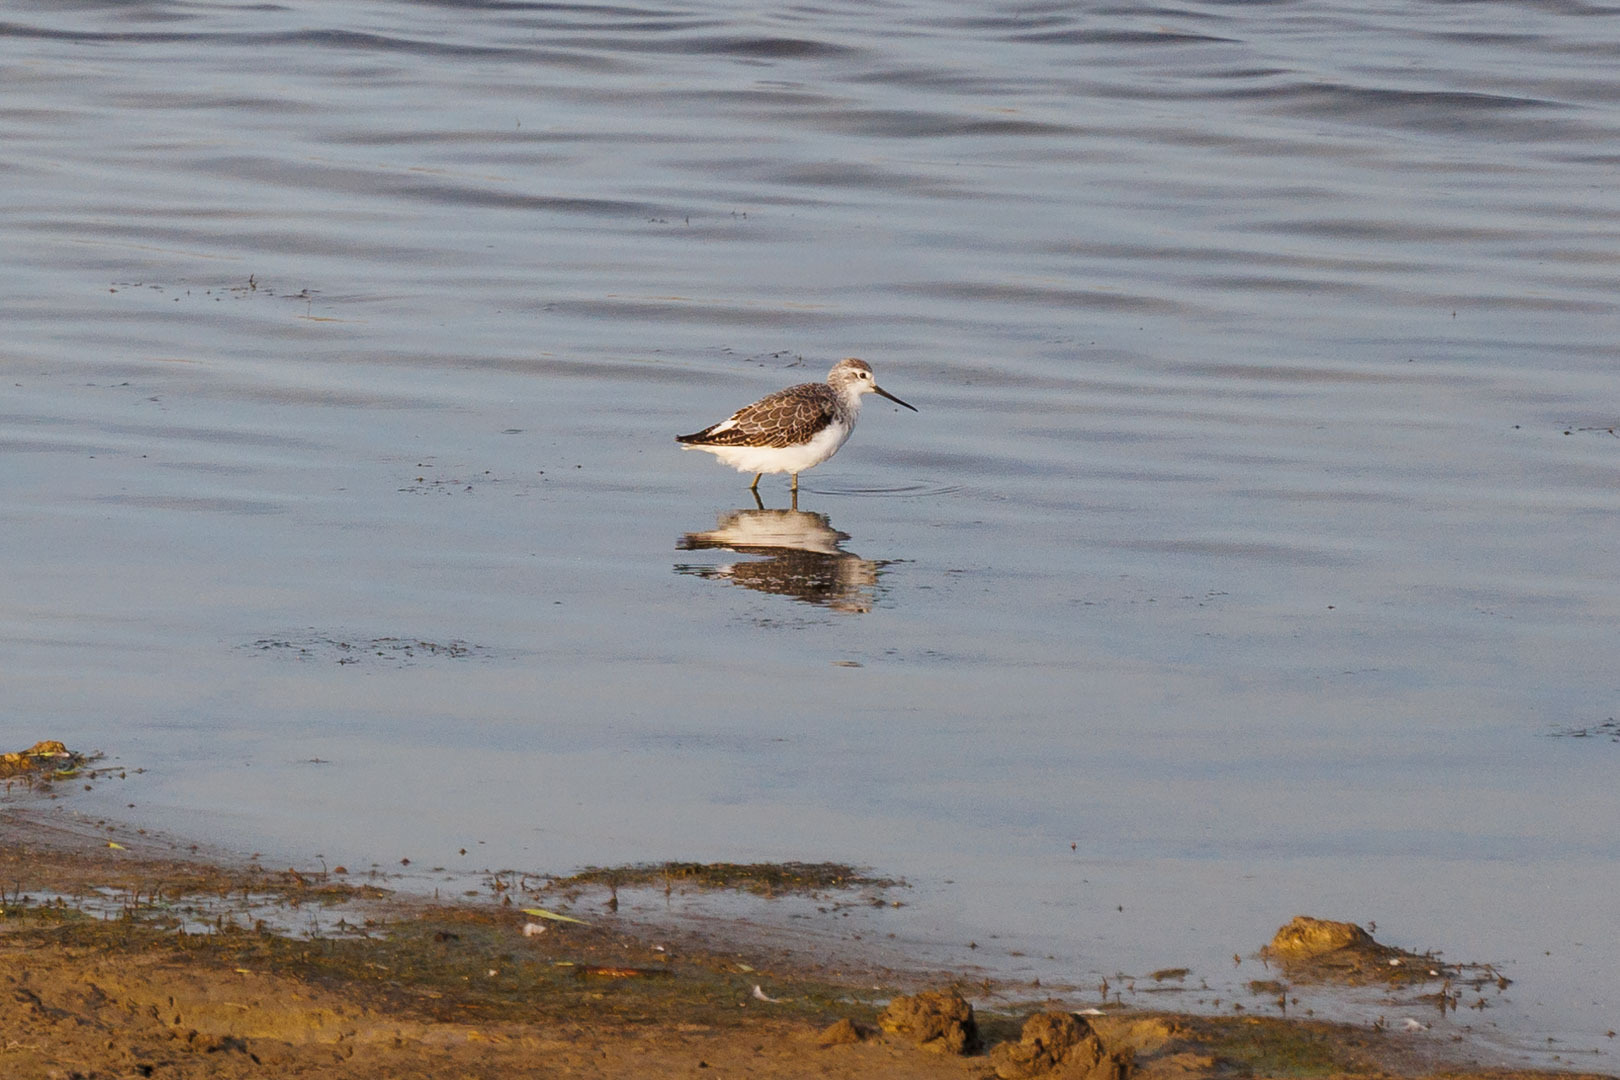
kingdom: Animalia
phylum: Chordata
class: Aves
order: Charadriiformes
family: Scolopacidae
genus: Tringa
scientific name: Tringa stagnatilis
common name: Marsh sandpiper
